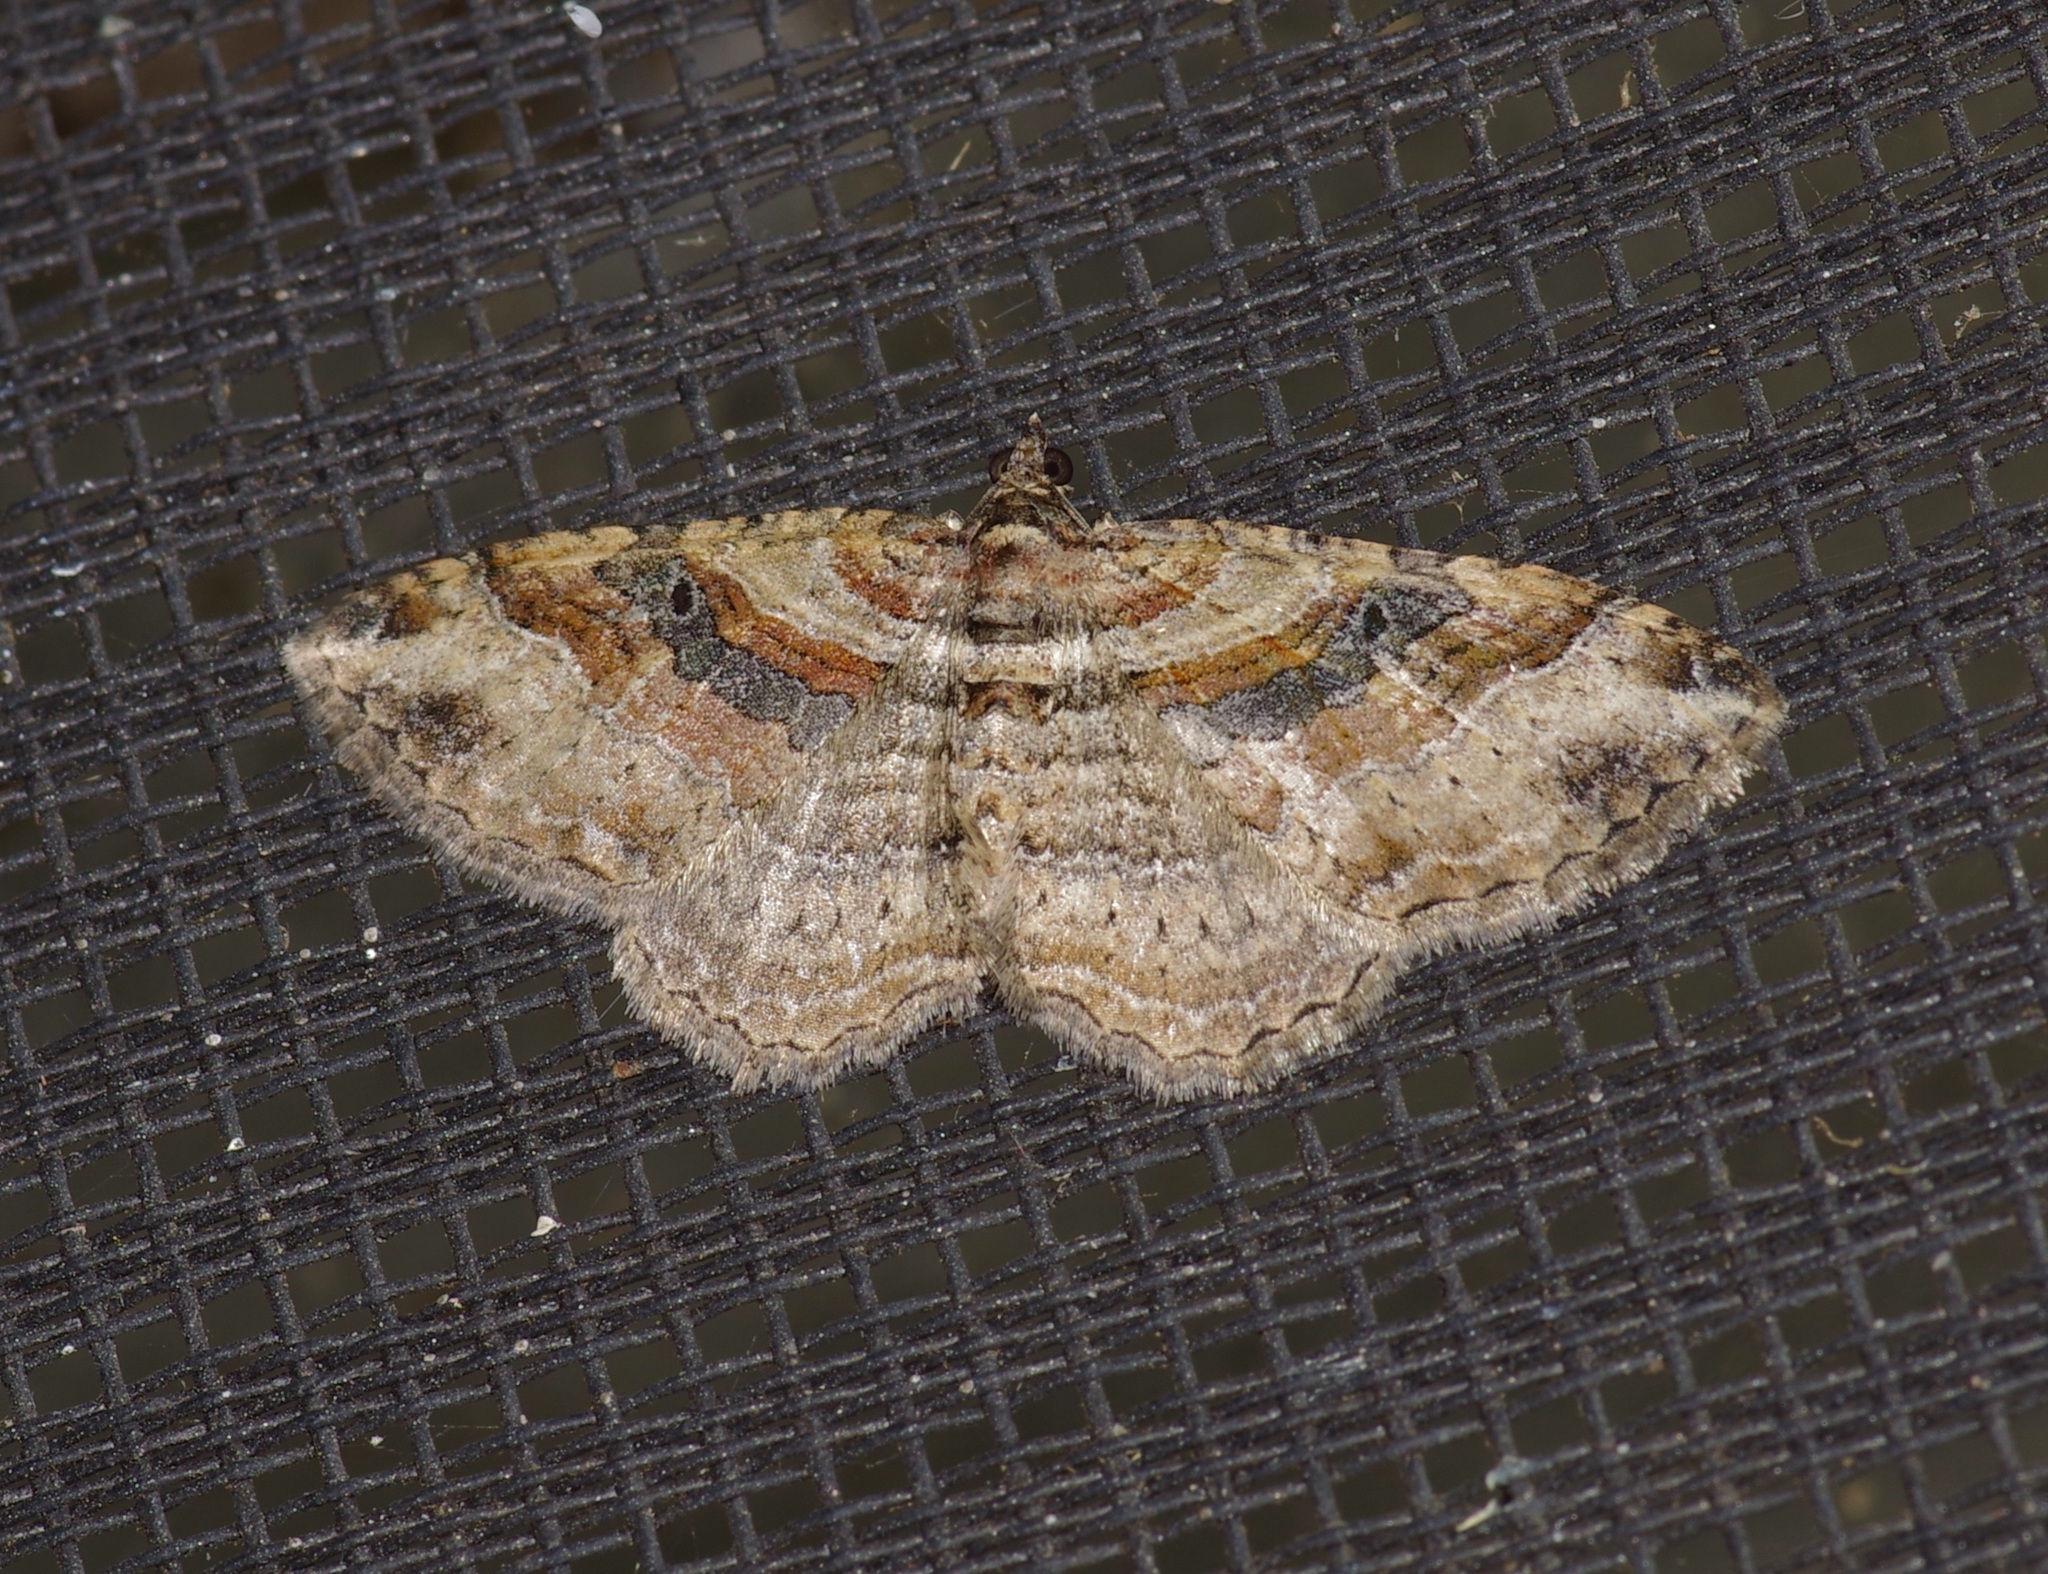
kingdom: Animalia
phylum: Arthropoda
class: Insecta
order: Lepidoptera
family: Geometridae
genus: Costaconvexa
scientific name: Costaconvexa centrostrigaria
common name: Bent-line carpet
